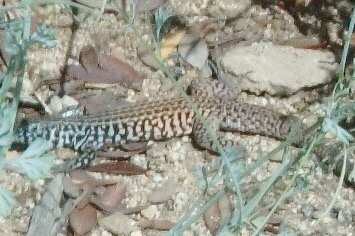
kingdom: Animalia
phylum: Chordata
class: Squamata
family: Teiidae
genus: Aspidoscelis
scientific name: Aspidoscelis tigris
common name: Tiger whiptail
